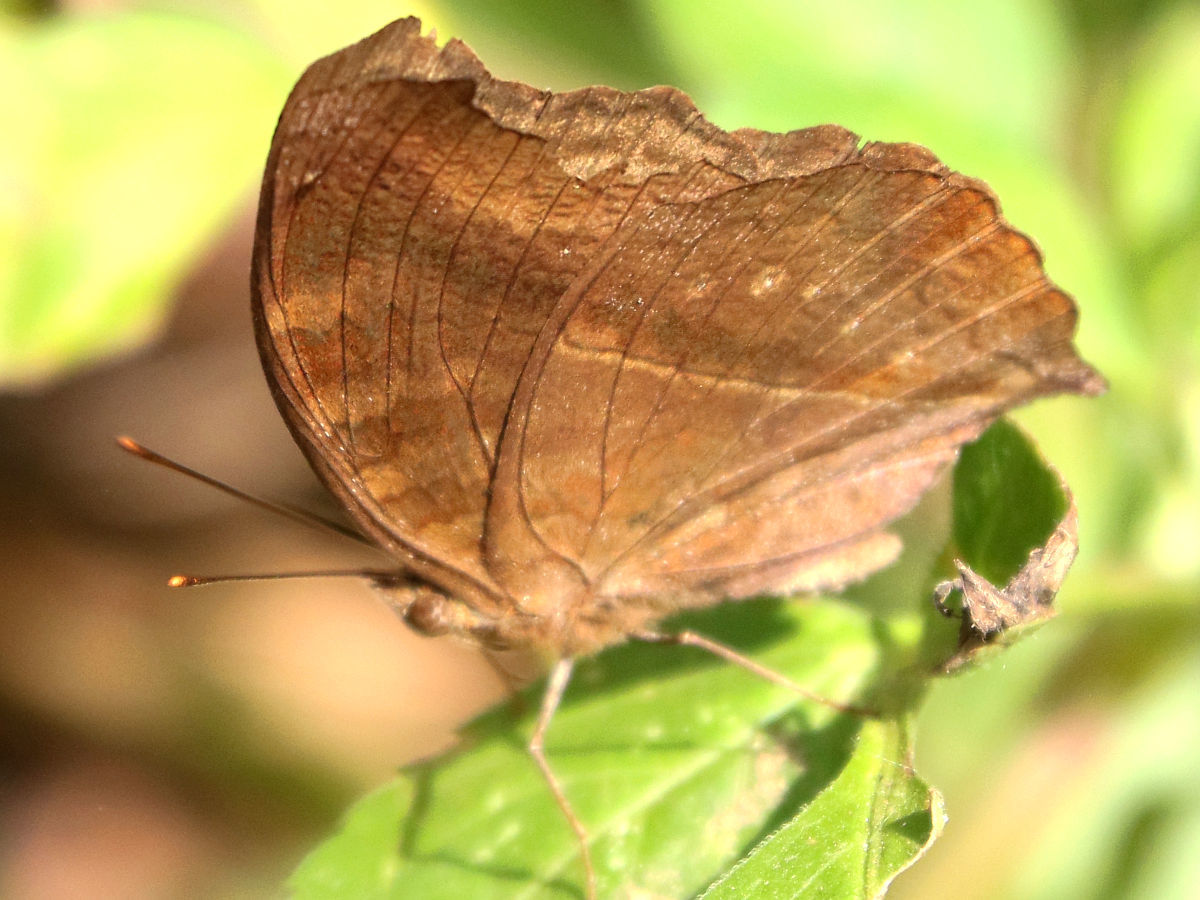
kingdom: Animalia
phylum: Arthropoda
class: Insecta
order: Lepidoptera
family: Nymphalidae
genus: Junonia
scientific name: Junonia iphita
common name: Chocolate pansy
